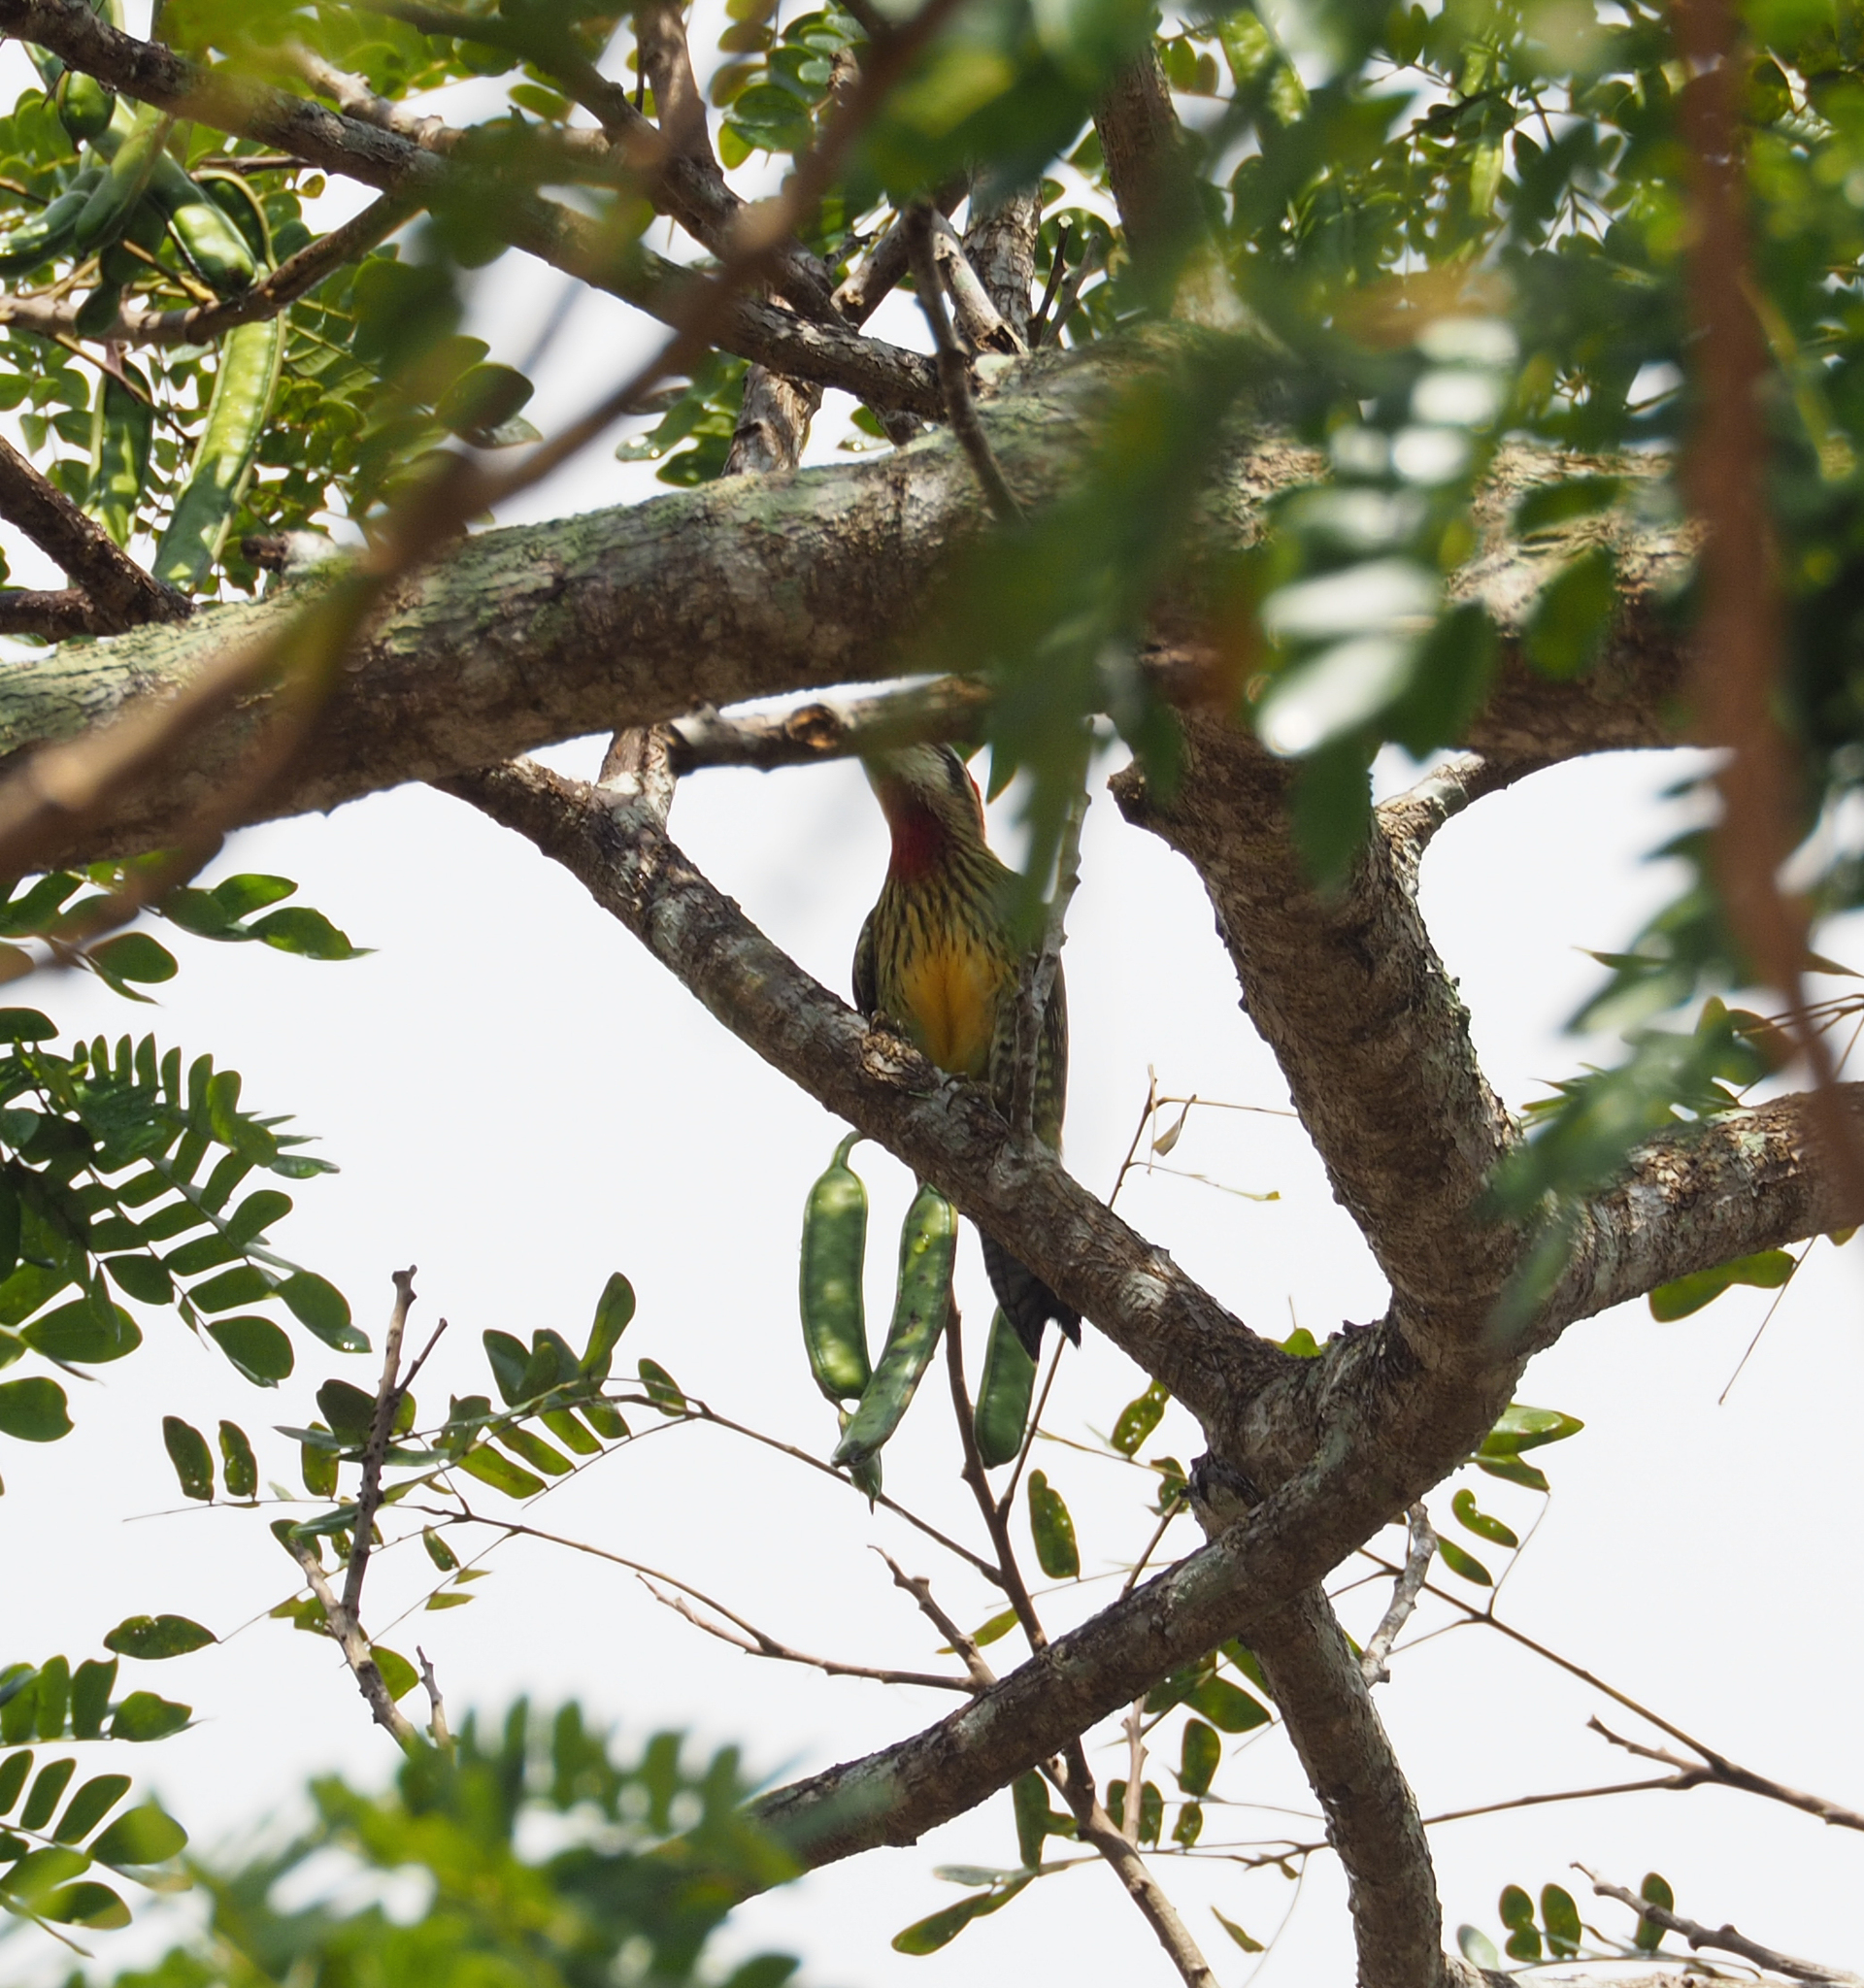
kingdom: Animalia
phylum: Chordata
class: Aves
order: Piciformes
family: Picidae
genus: Xiphidiopicus
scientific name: Xiphidiopicus percussus
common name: Cuban green woodpecker
